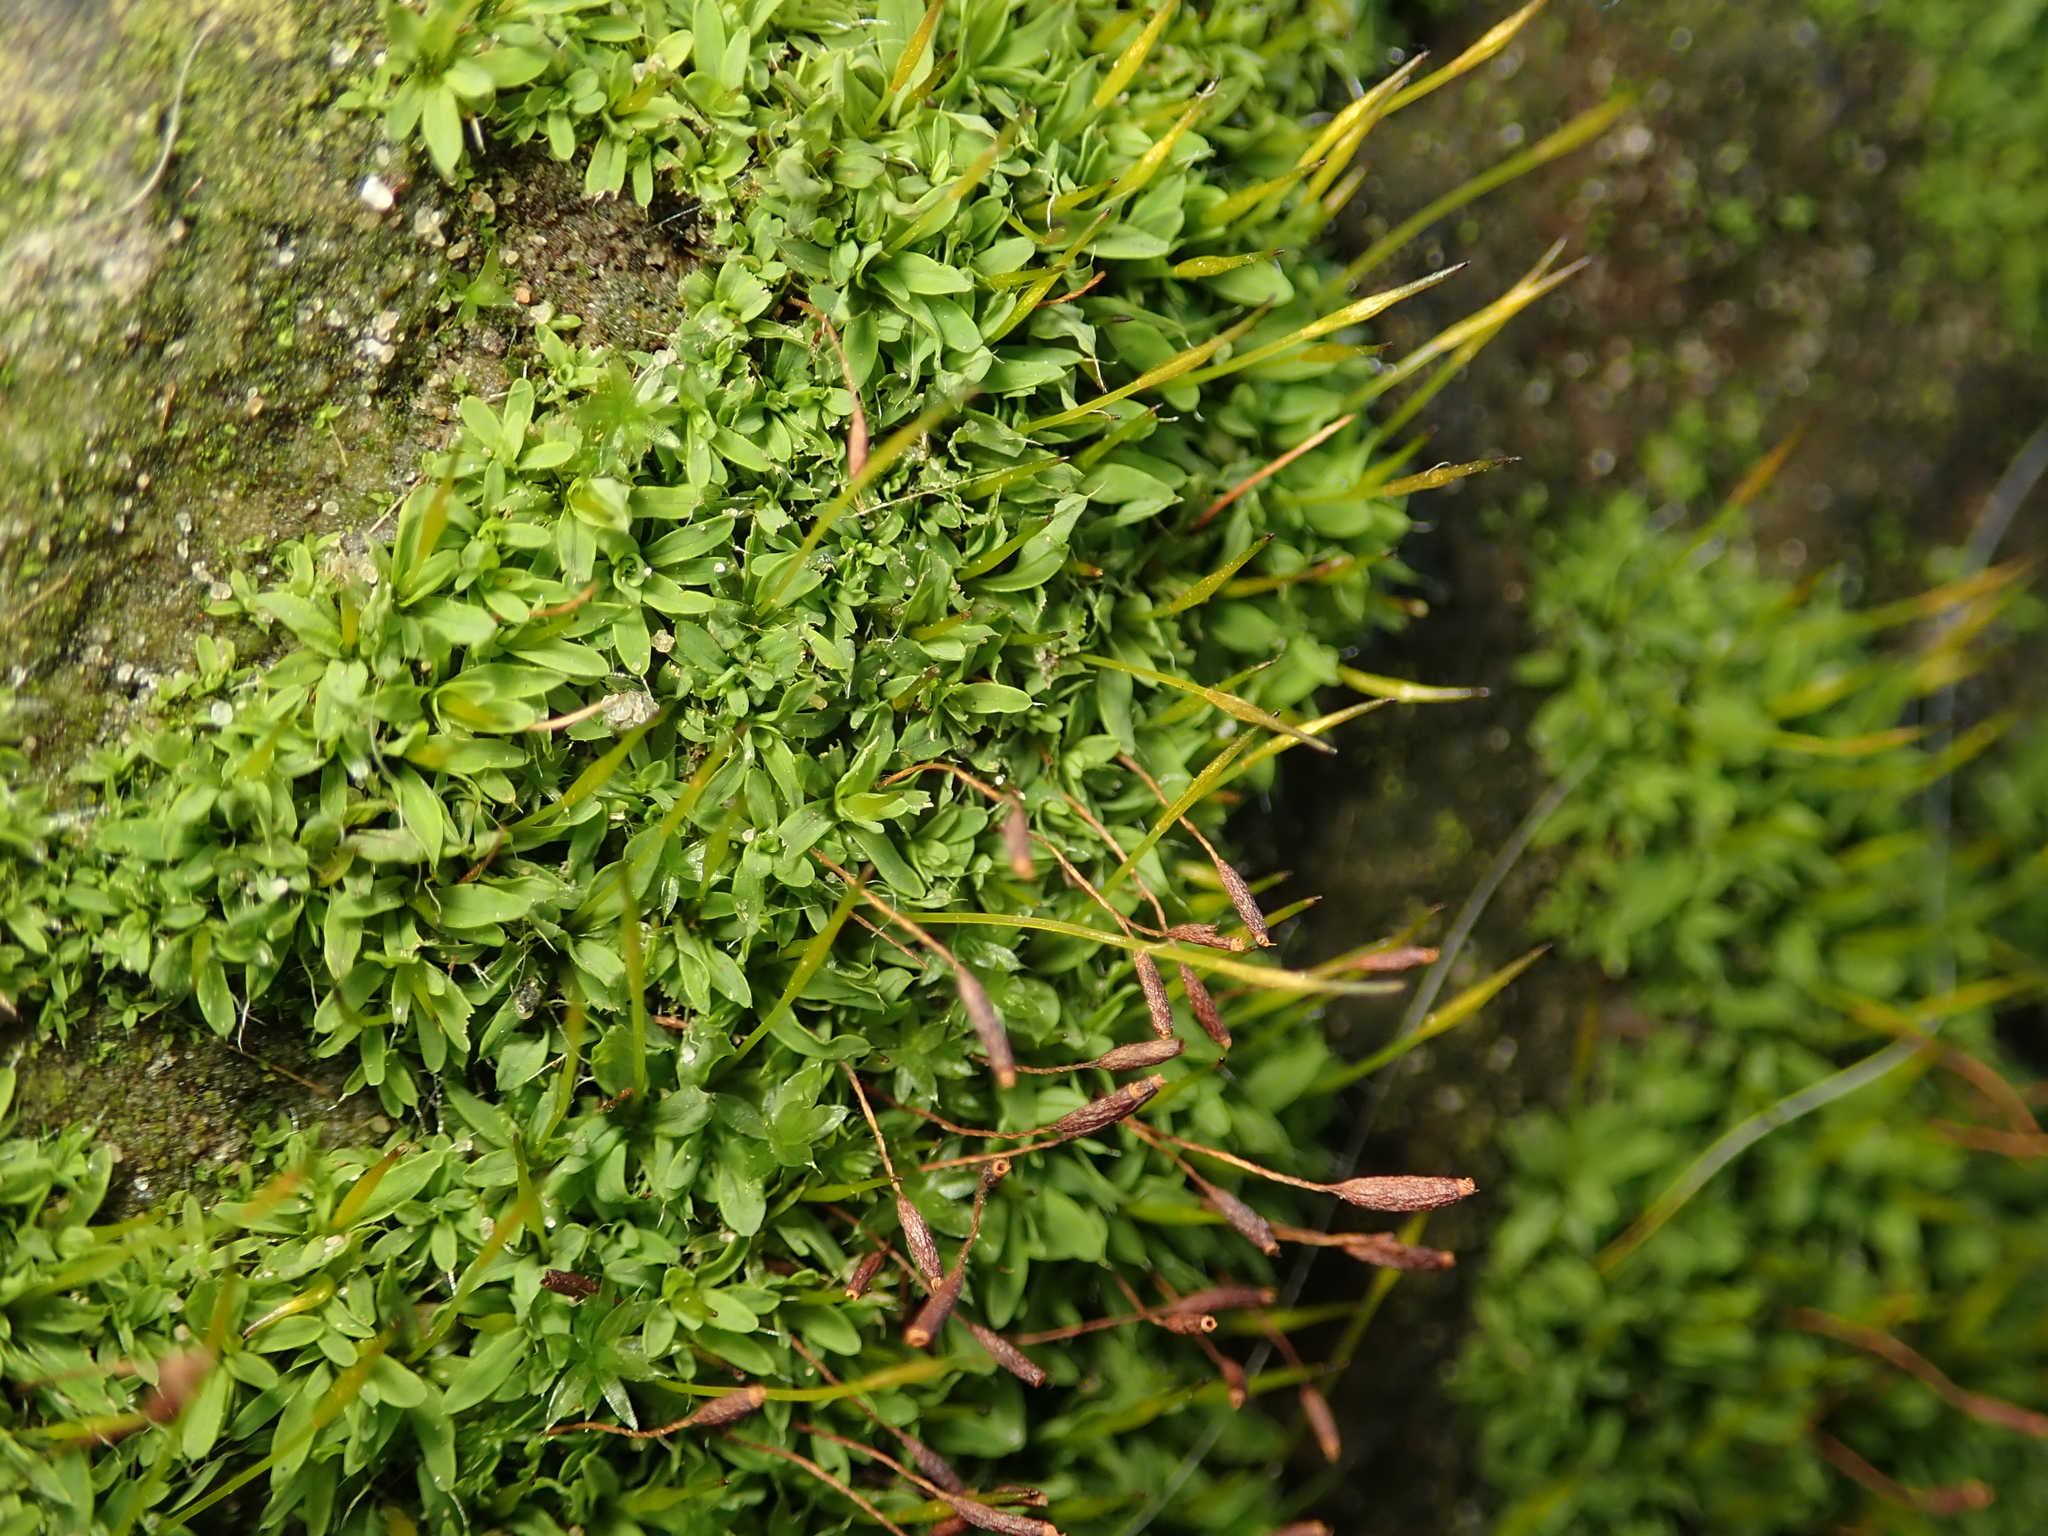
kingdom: Plantae
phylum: Bryophyta
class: Bryopsida
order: Pottiales
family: Pottiaceae
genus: Tortula
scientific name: Tortula muralis
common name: Wall screw-moss
